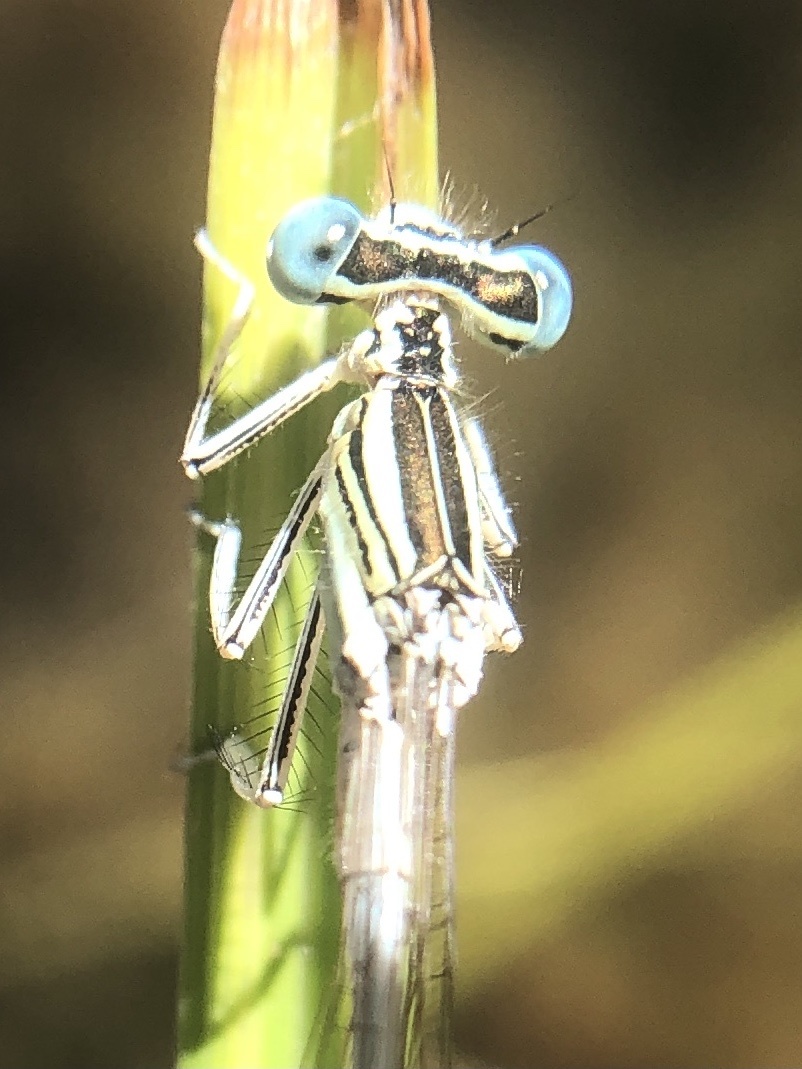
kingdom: Animalia
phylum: Arthropoda
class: Insecta
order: Odonata
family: Platycnemididae
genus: Platycnemis
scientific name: Platycnemis latipes
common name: White featherleg
